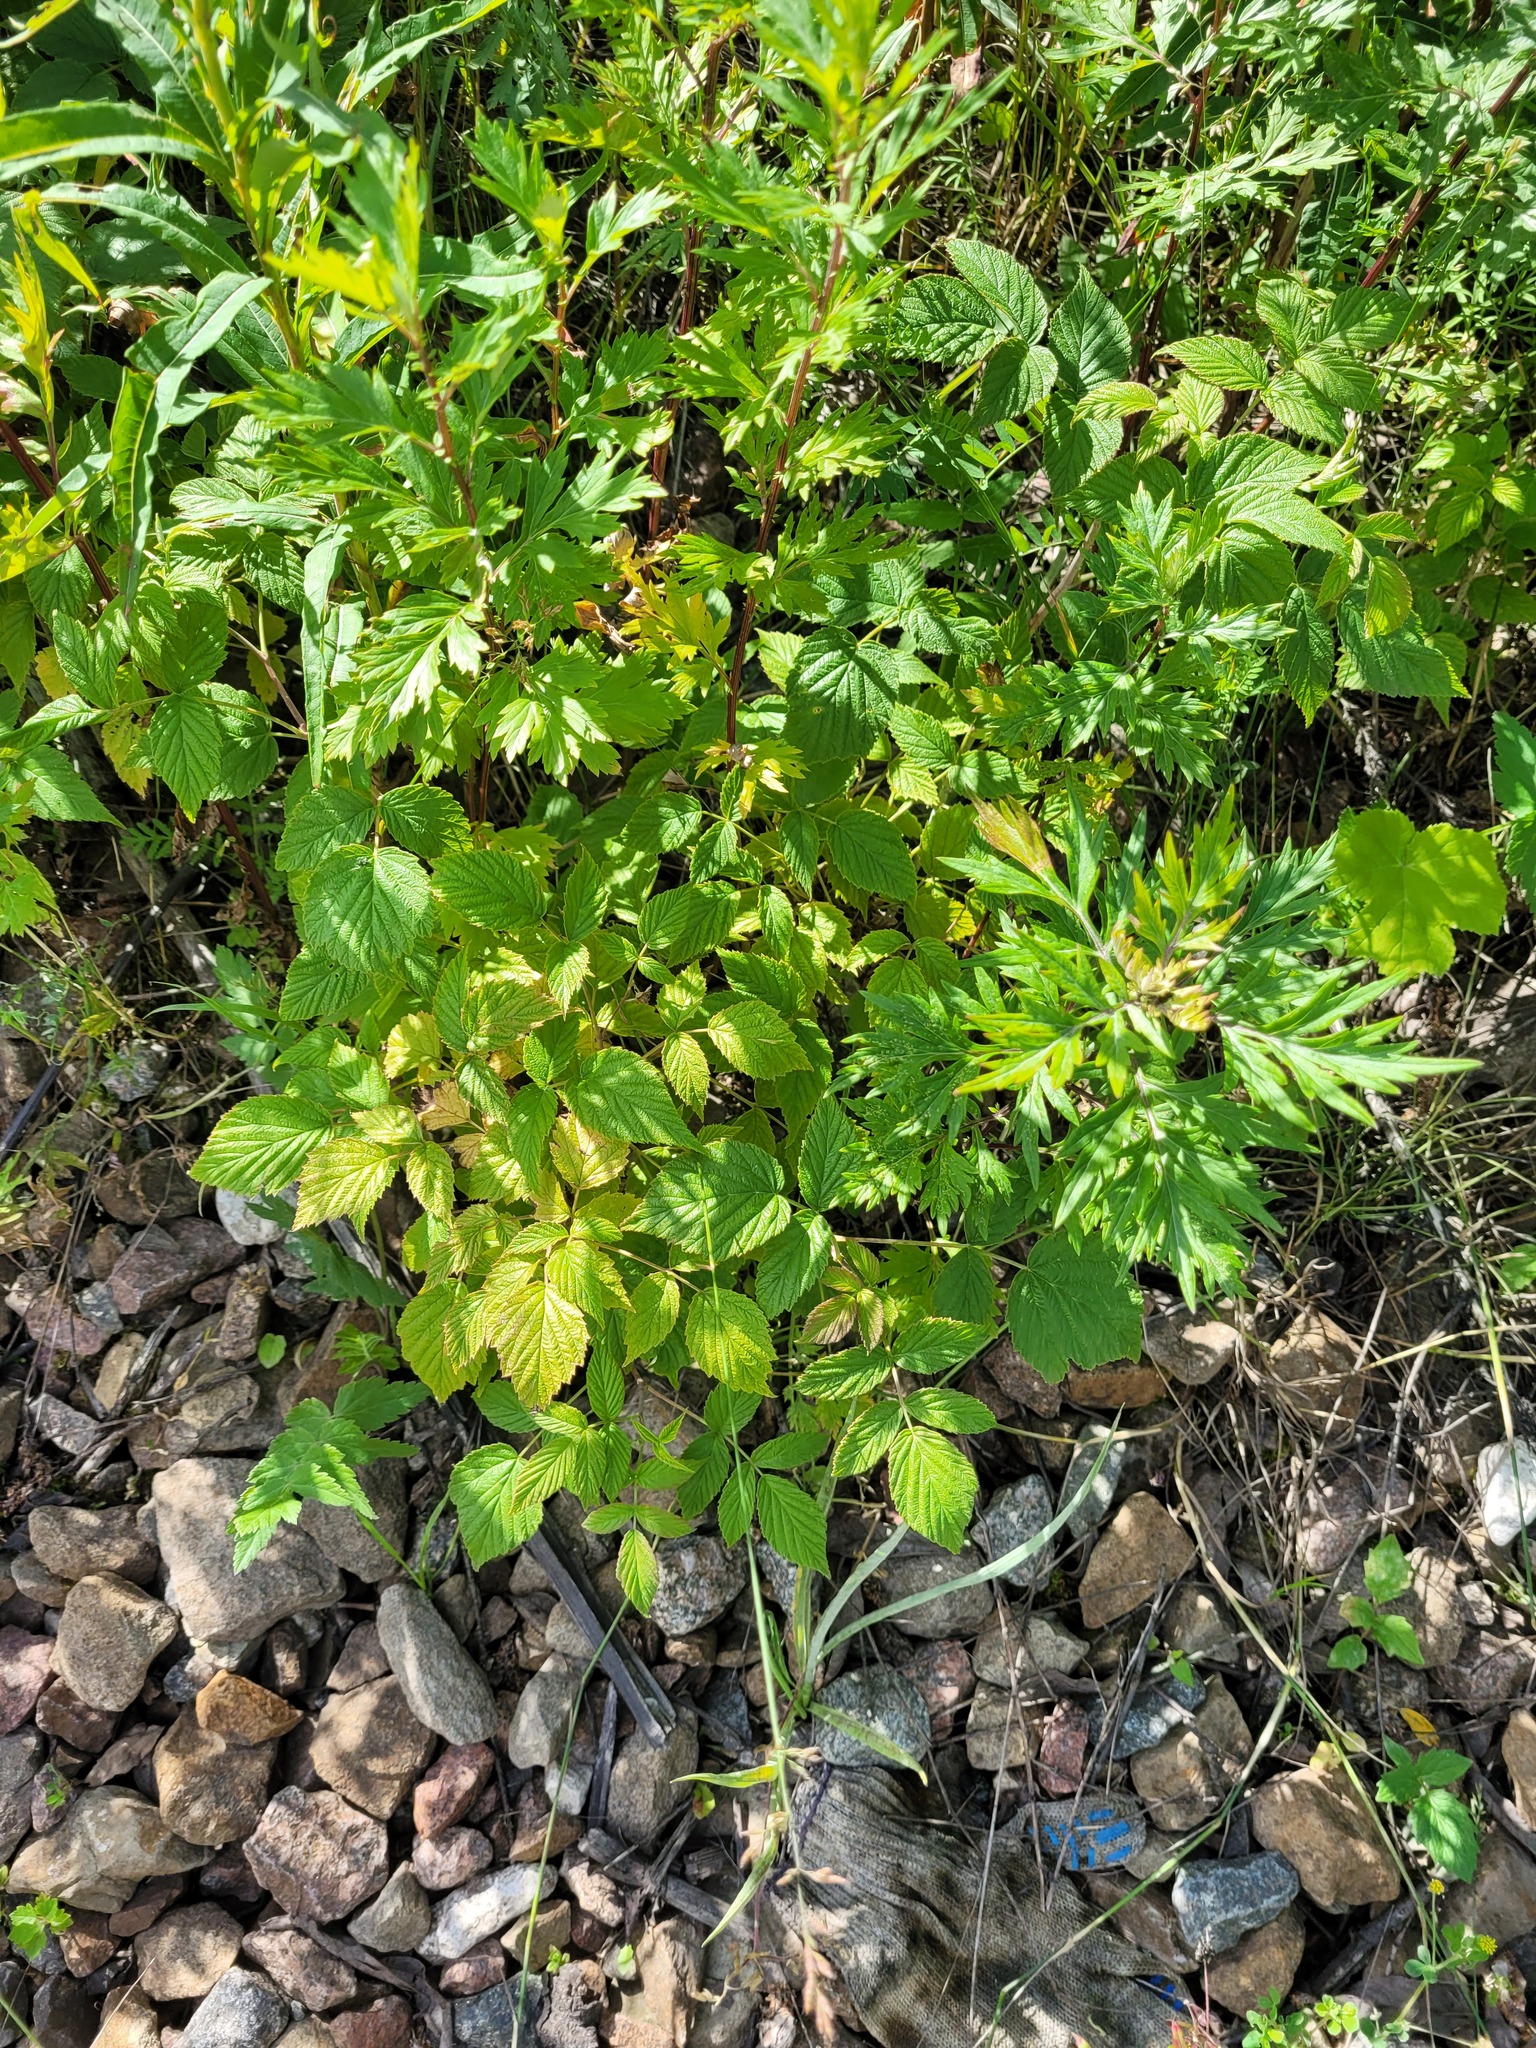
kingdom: Plantae
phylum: Tracheophyta
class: Magnoliopsida
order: Rosales
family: Rosaceae
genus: Rubus
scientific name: Rubus idaeus
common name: Raspberry
